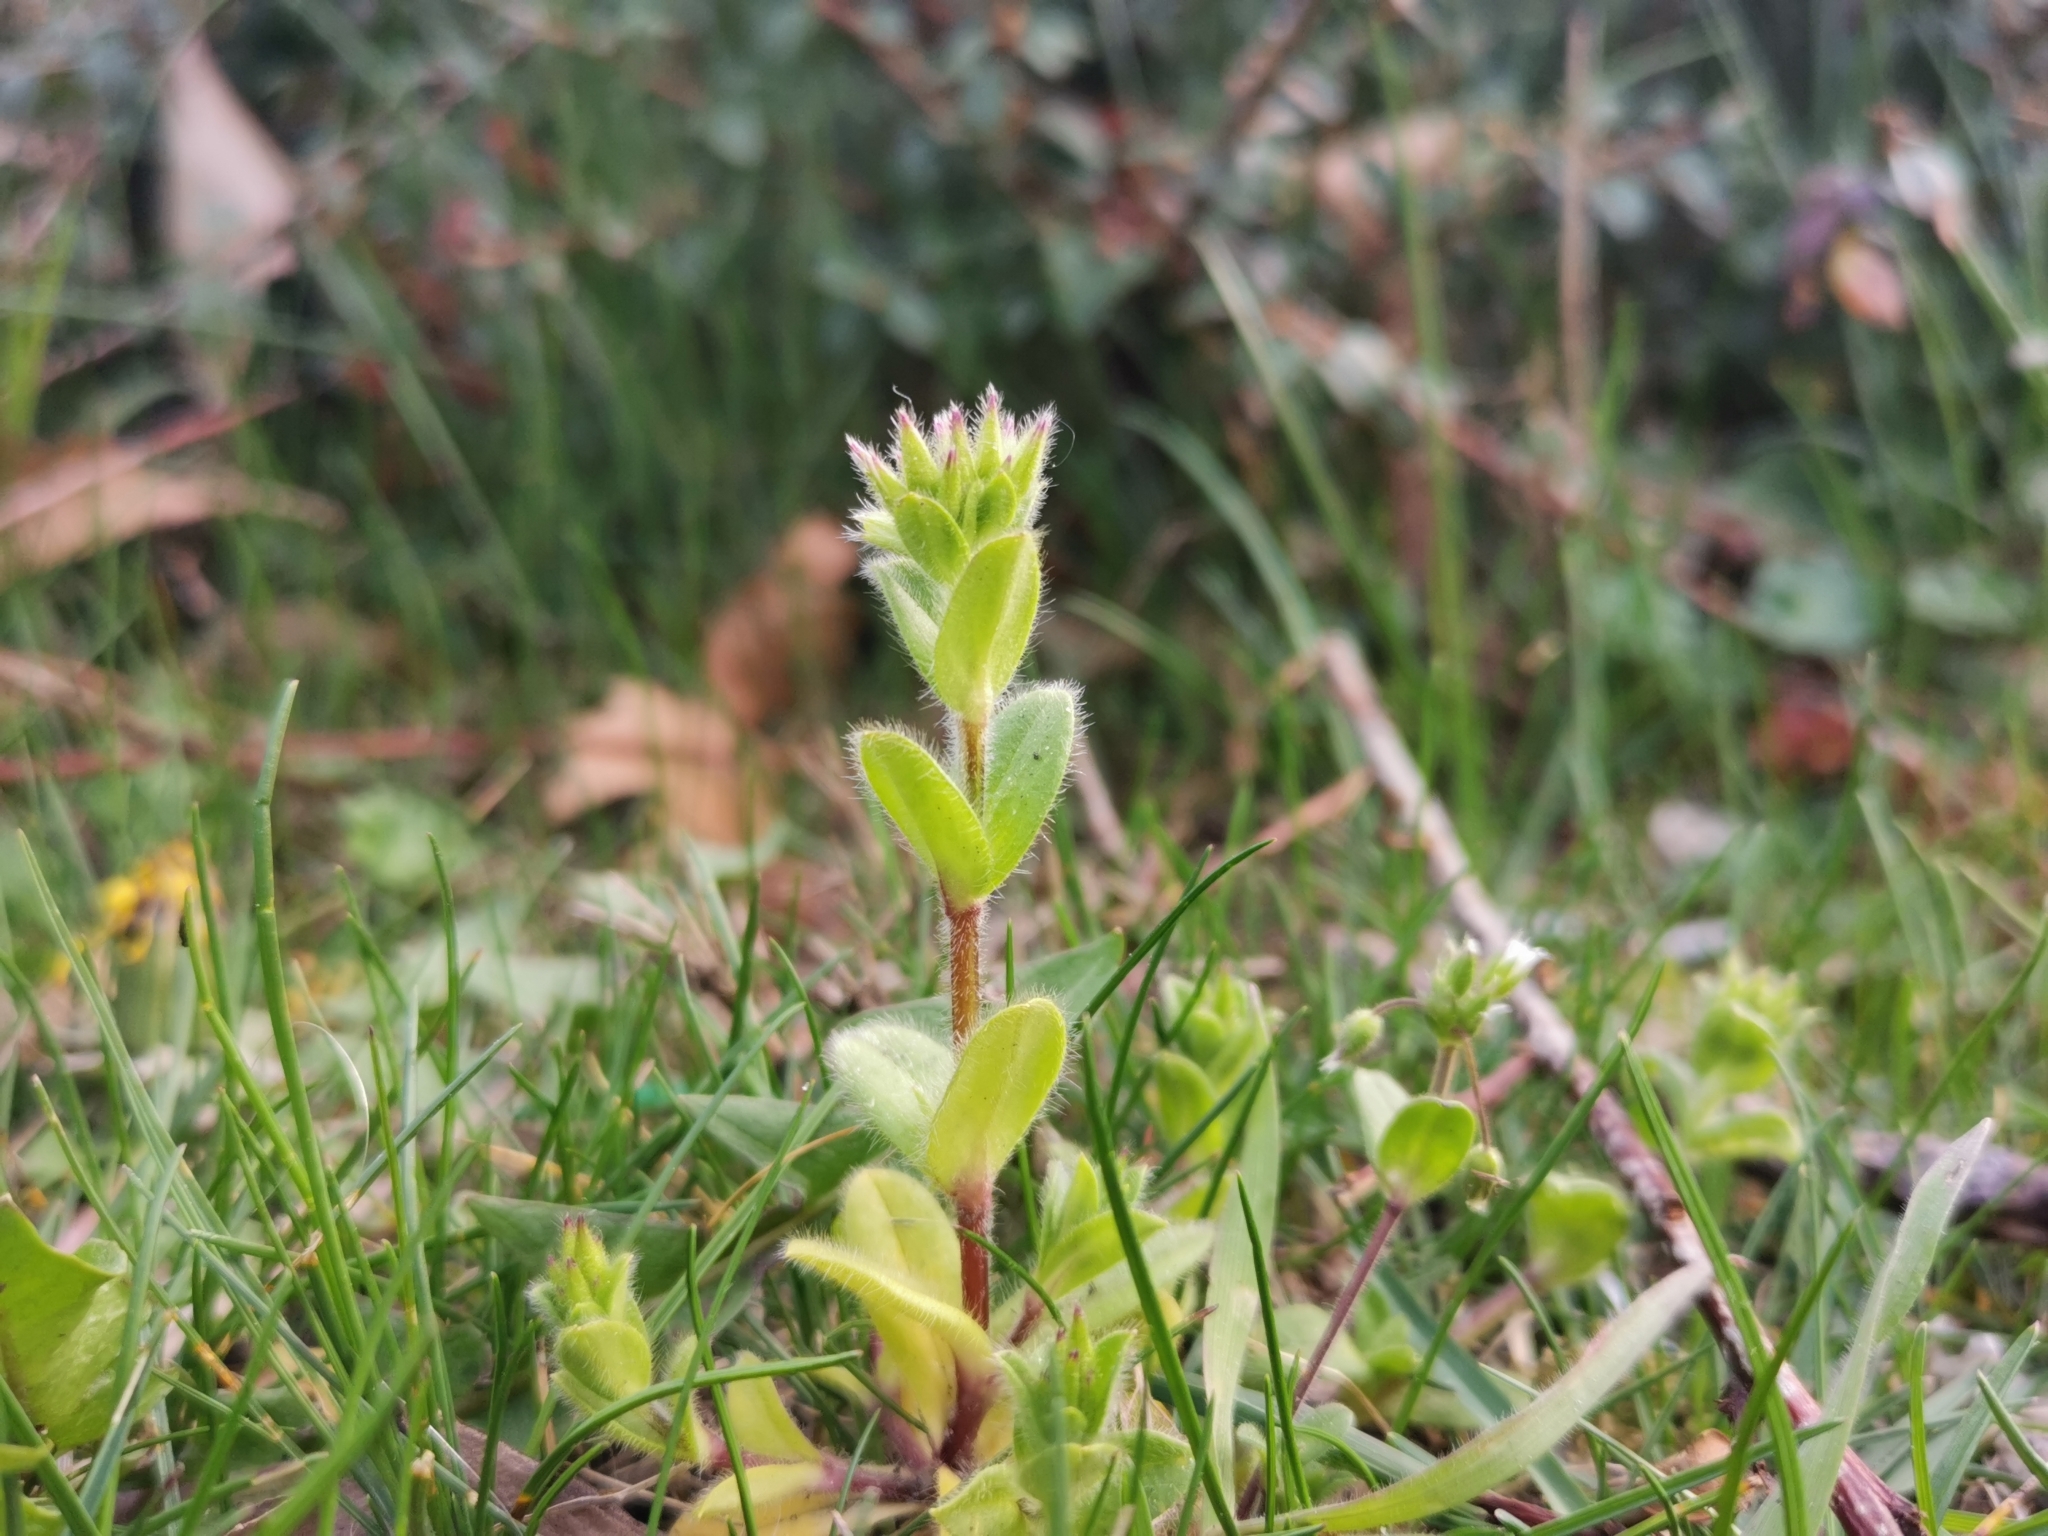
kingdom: Plantae
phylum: Tracheophyta
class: Magnoliopsida
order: Caryophyllales
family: Caryophyllaceae
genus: Cerastium
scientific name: Cerastium glomeratum
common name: Sticky chickweed
